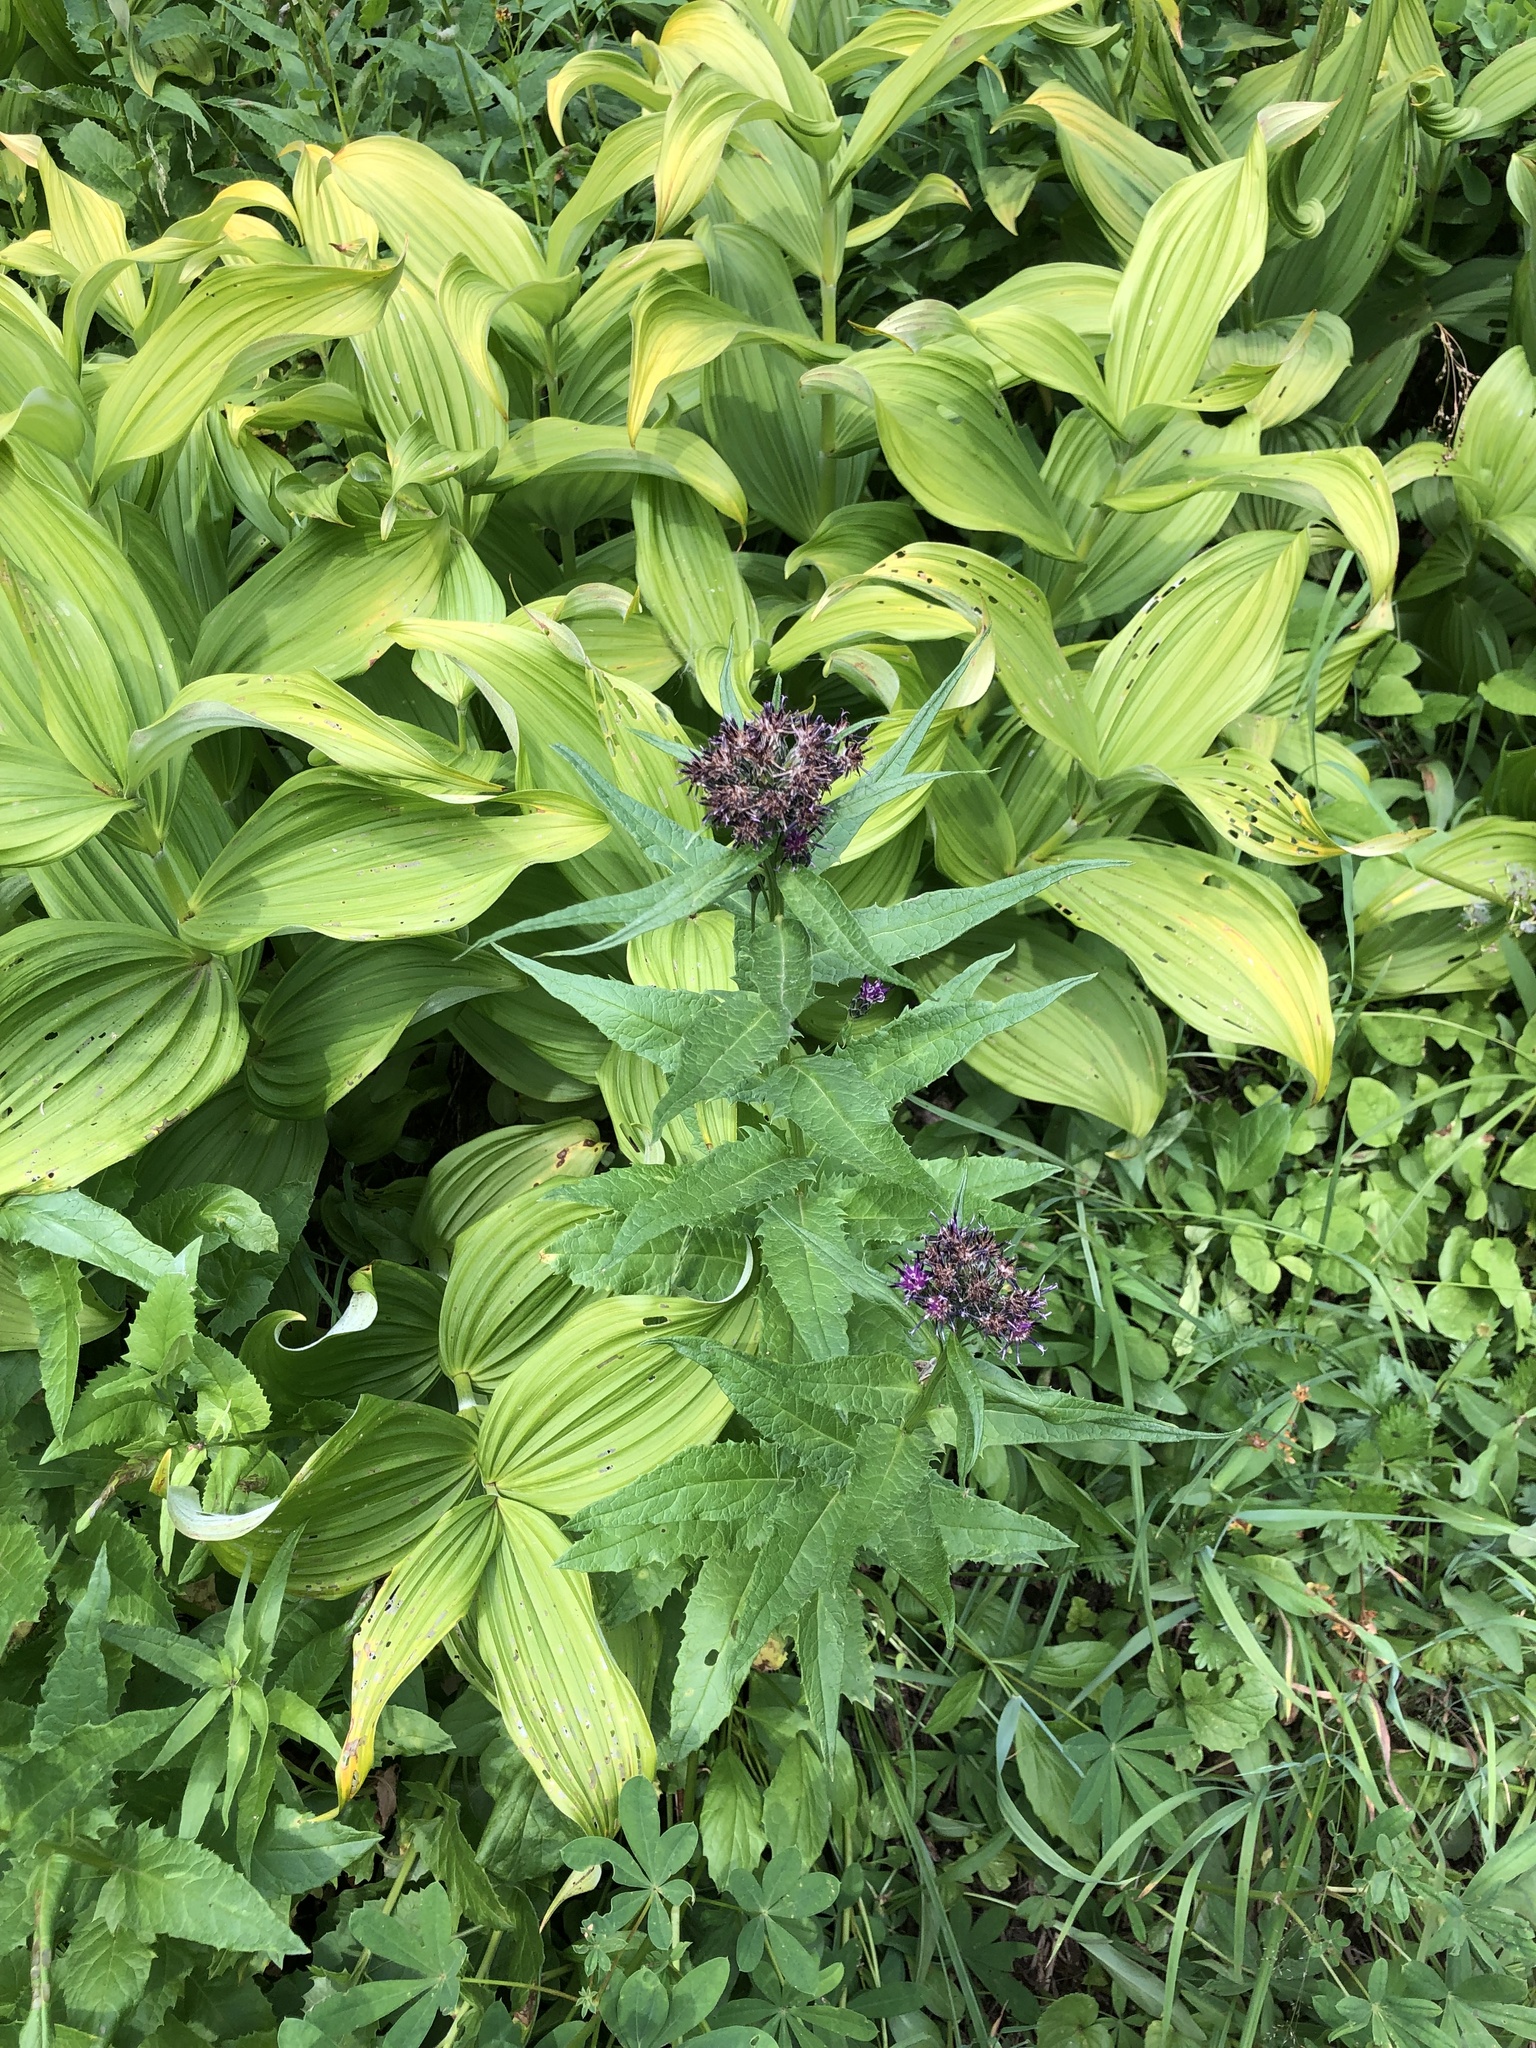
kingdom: Plantae
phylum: Tracheophyta
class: Liliopsida
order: Liliales
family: Melanthiaceae
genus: Veratrum
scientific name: Veratrum viride
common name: American false hellebore
